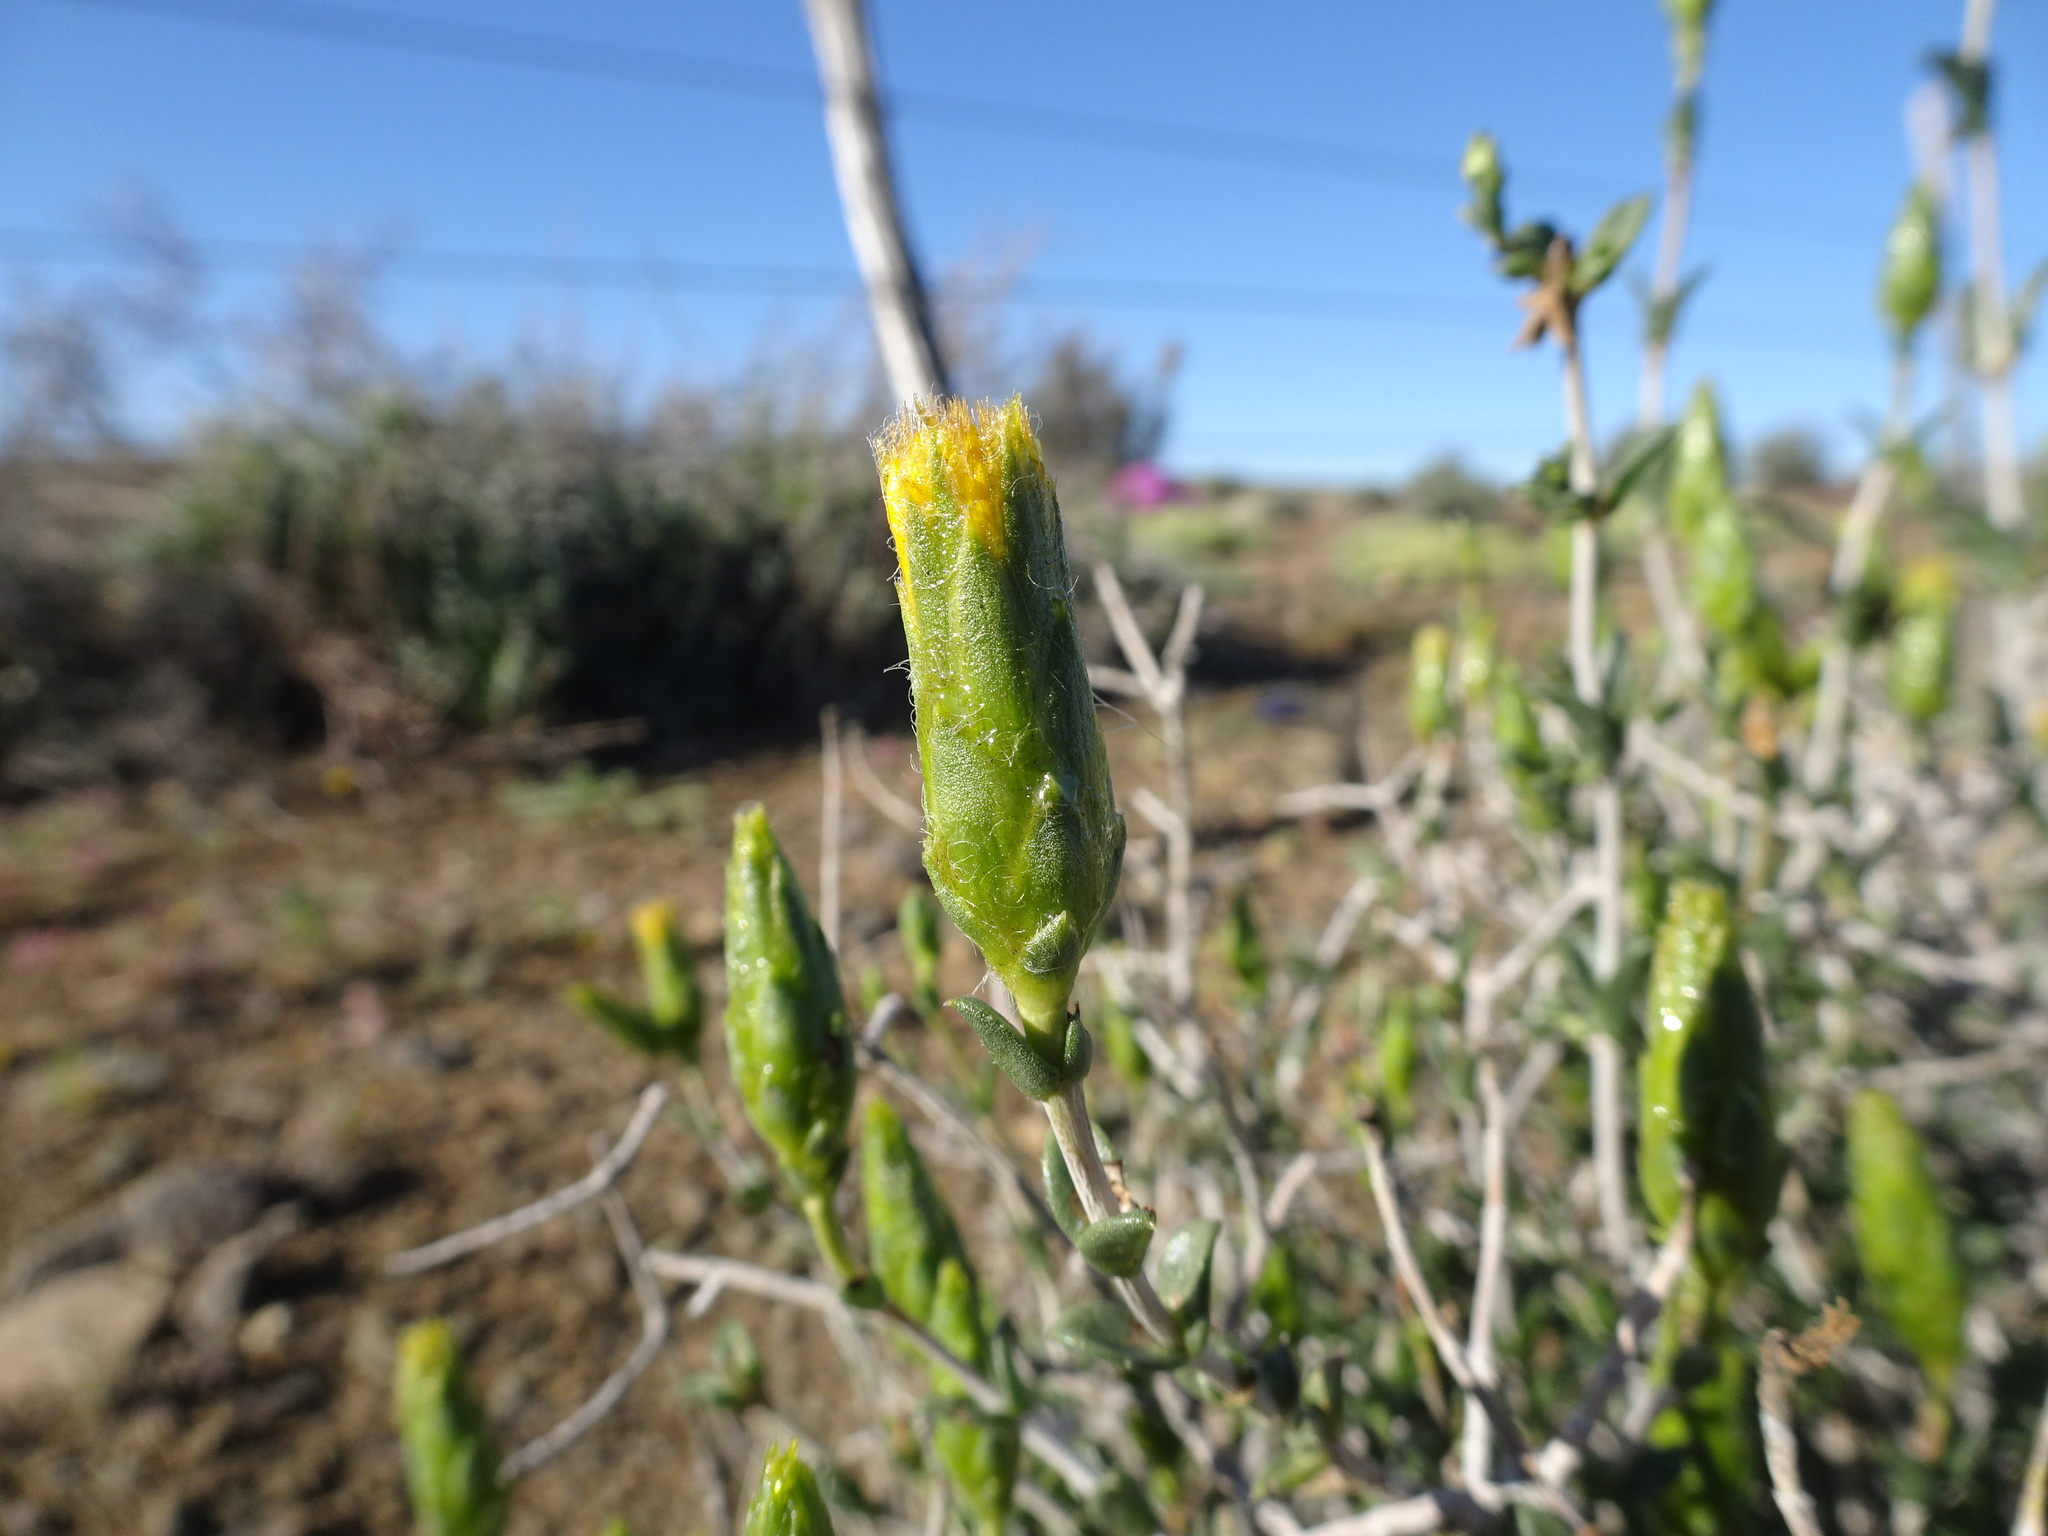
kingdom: Plantae
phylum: Tracheophyta
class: Magnoliopsida
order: Asterales
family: Asteraceae
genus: Pteronia
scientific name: Pteronia viscosa
